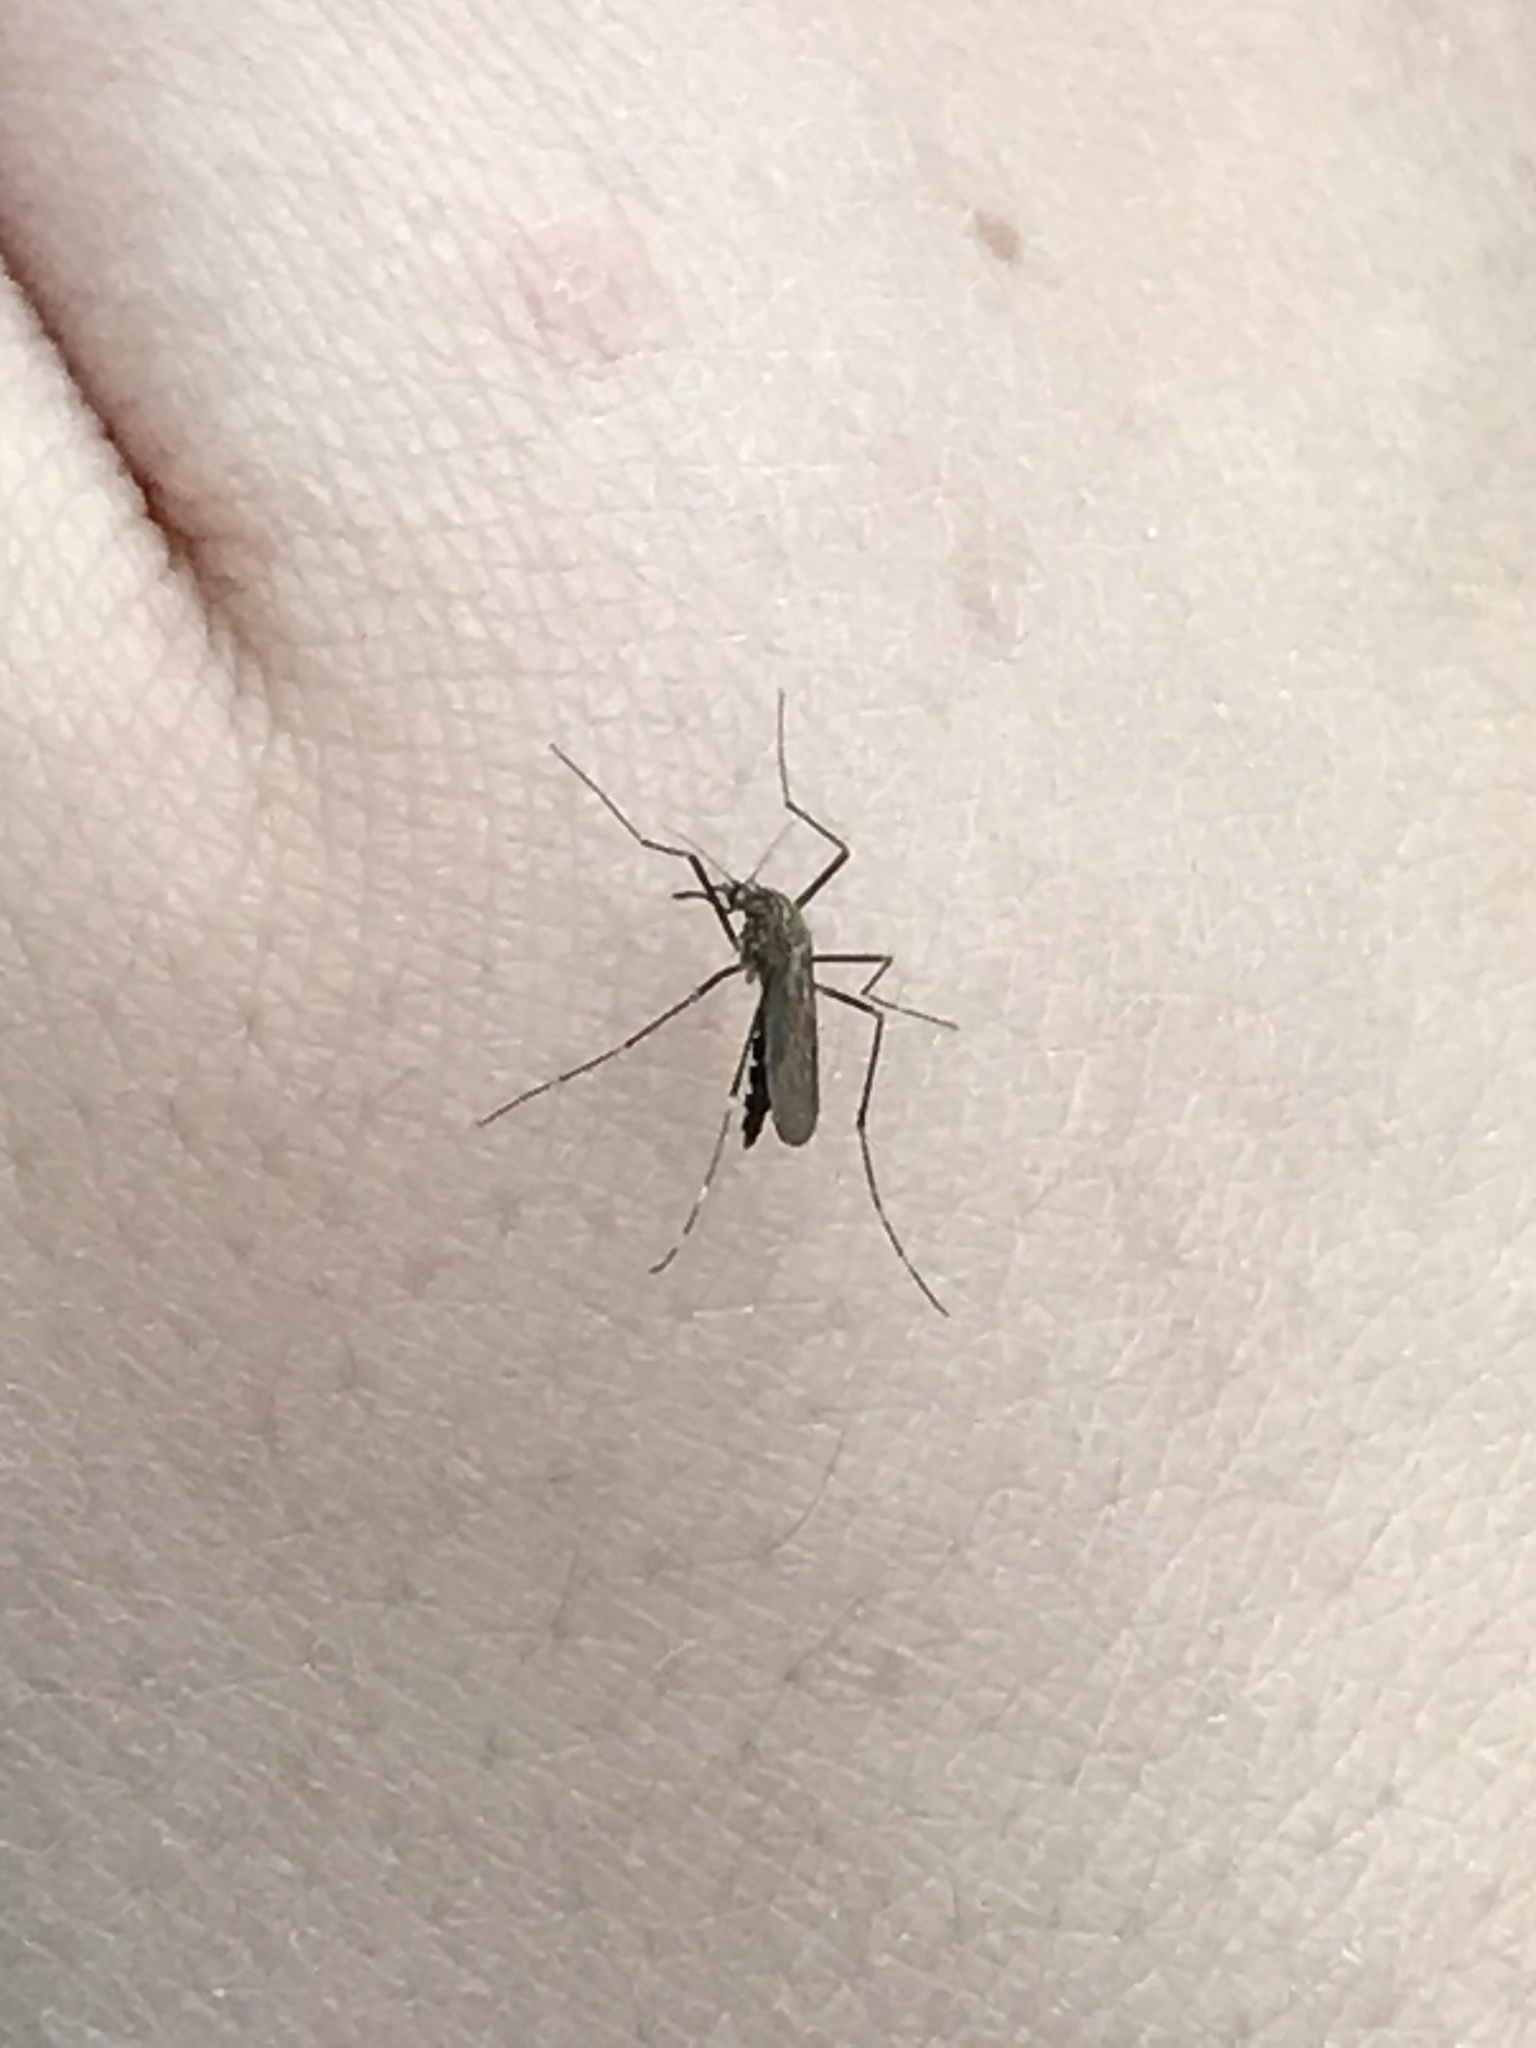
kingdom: Animalia
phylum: Arthropoda
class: Insecta
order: Diptera
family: Culicidae
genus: Aedes
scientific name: Aedes japonicus
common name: Asian bush mosquito
